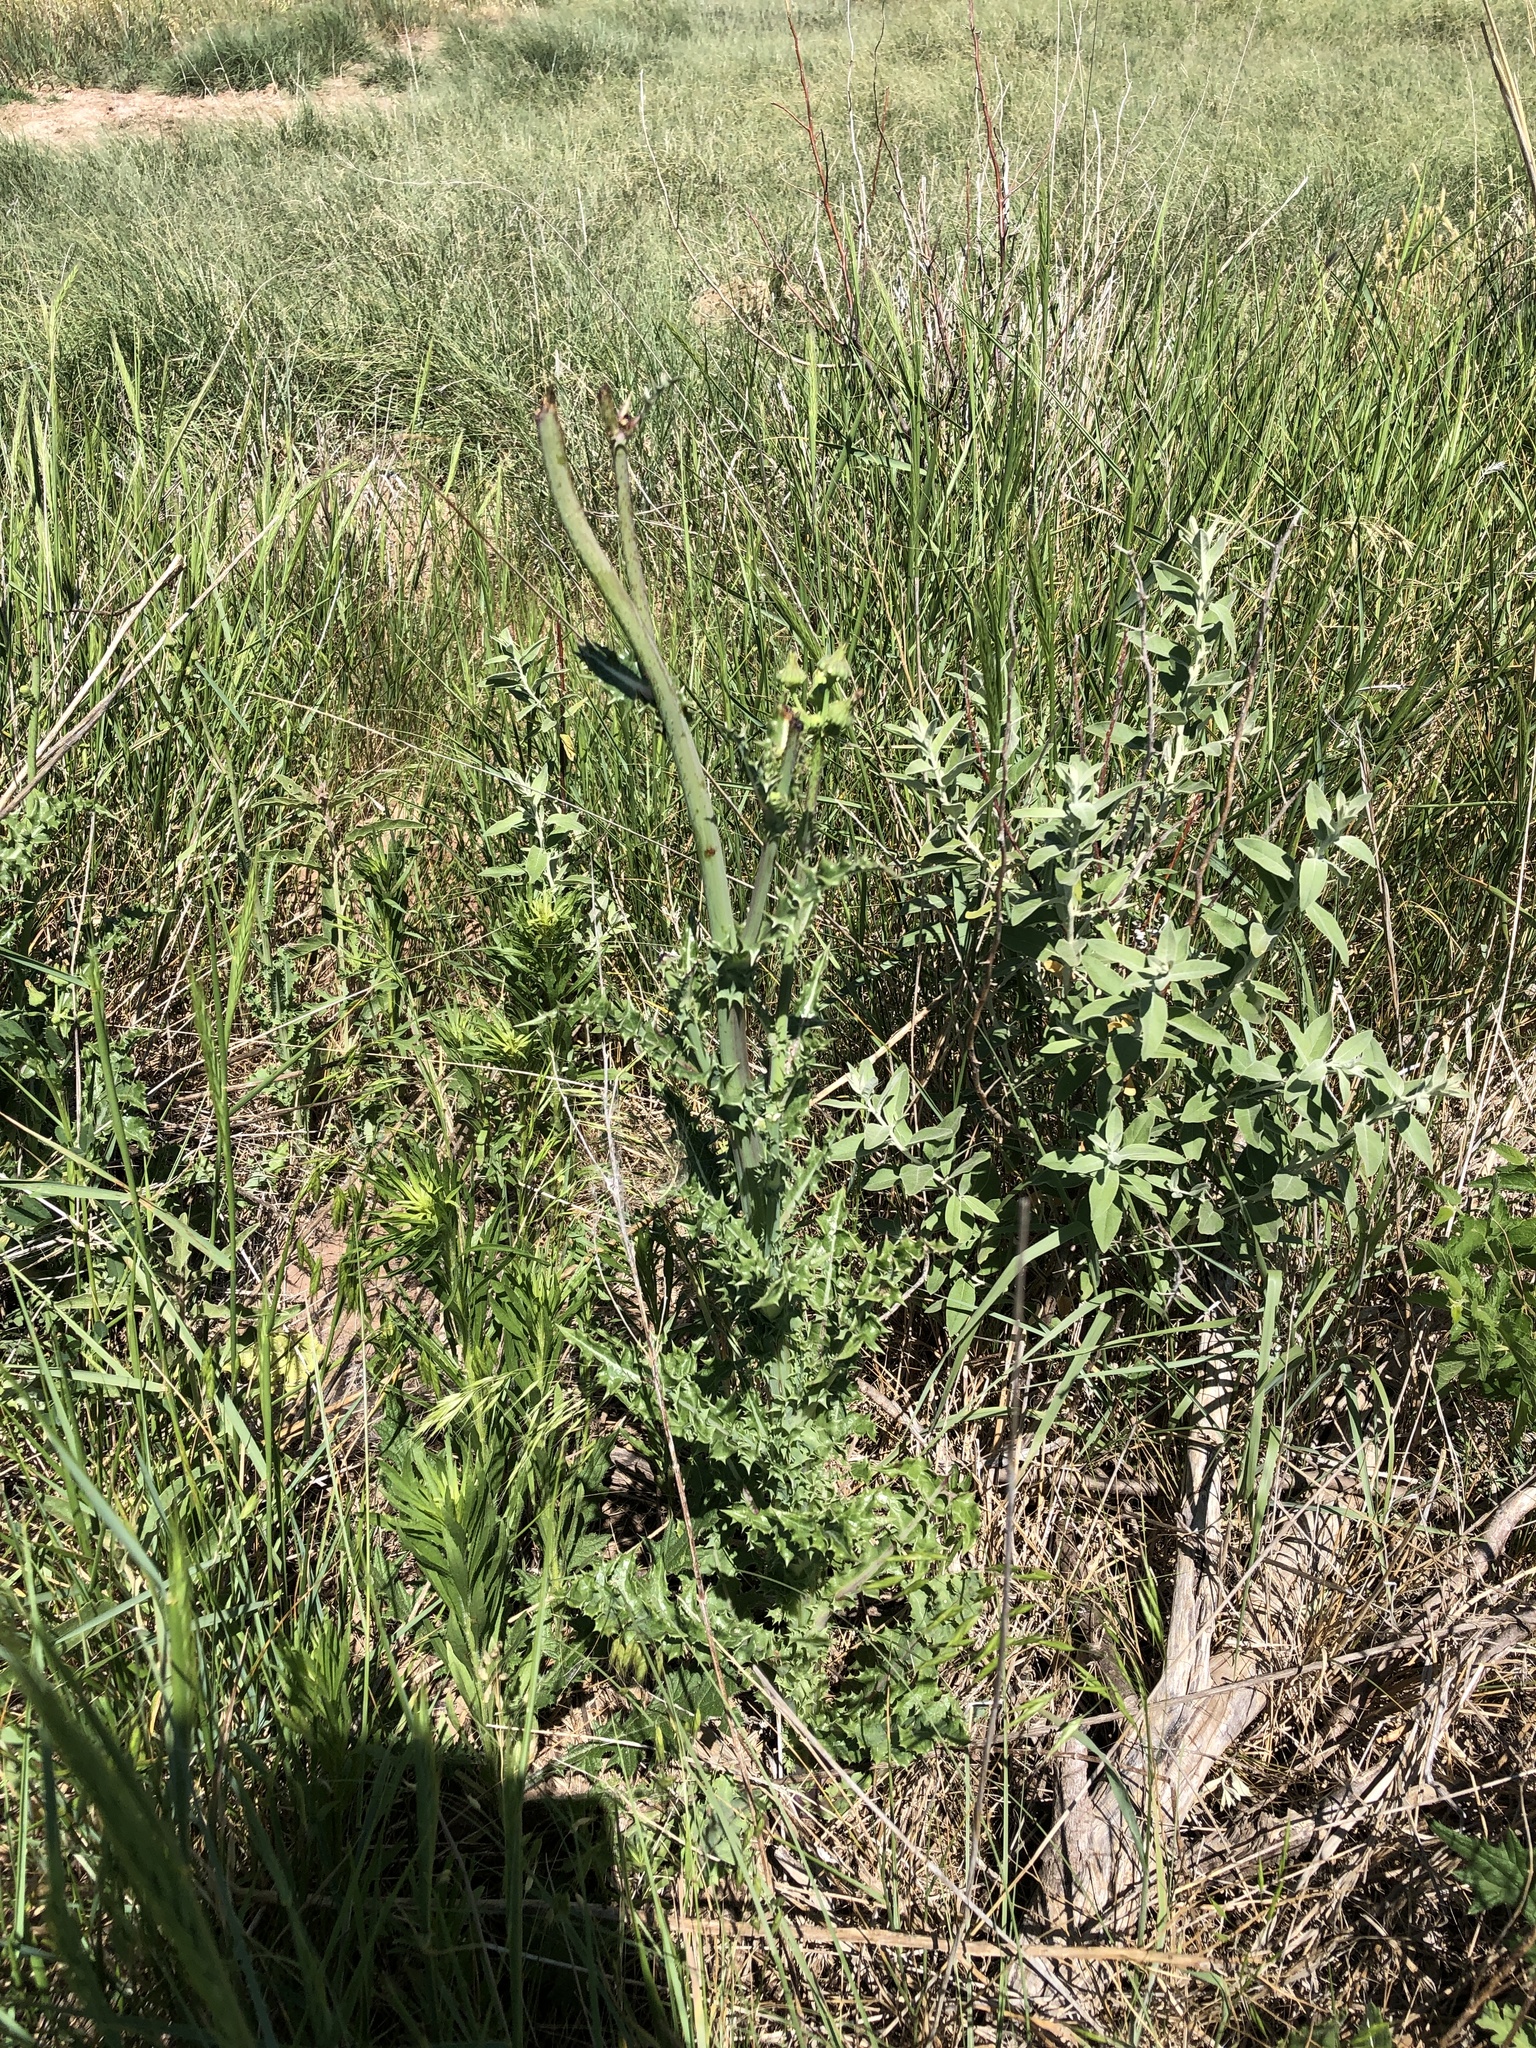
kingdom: Plantae
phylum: Tracheophyta
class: Magnoliopsida
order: Asterales
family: Asteraceae
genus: Sonchus
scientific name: Sonchus asper
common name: Prickly sow-thistle
